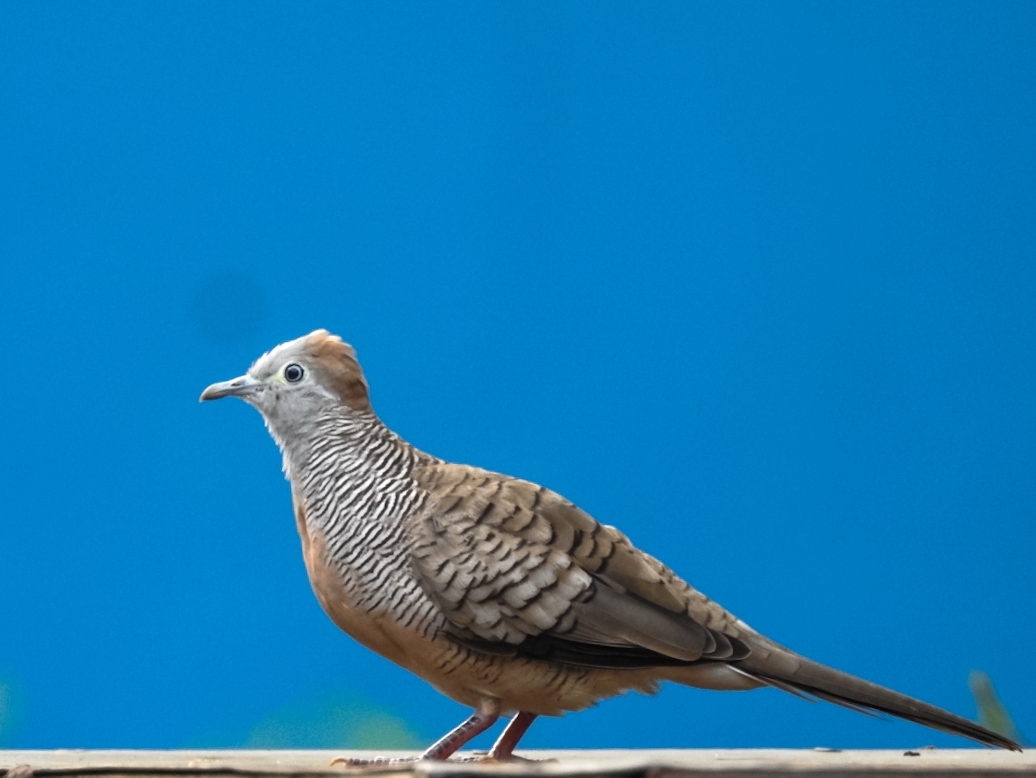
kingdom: Animalia
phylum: Chordata
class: Aves
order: Columbiformes
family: Columbidae
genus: Geopelia
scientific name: Geopelia striata
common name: Zebra dove
